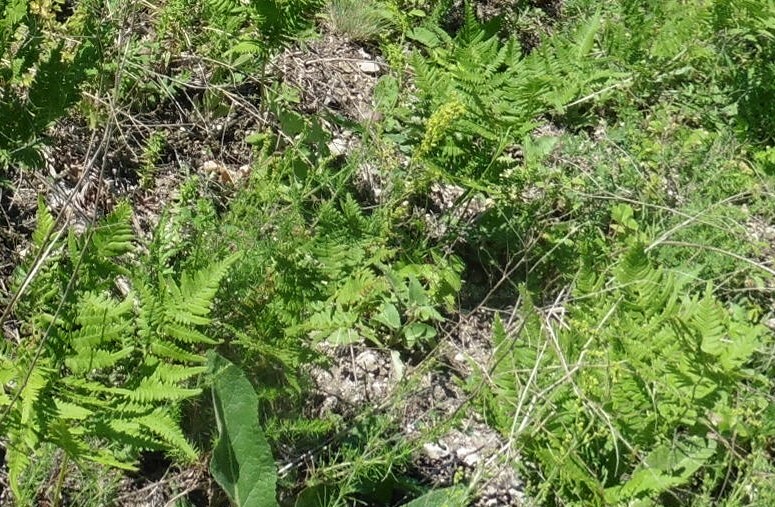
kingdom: Plantae
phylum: Tracheophyta
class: Polypodiopsida
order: Polypodiales
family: Dennstaedtiaceae
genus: Pteridium
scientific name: Pteridium aquilinum
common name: Bracken
